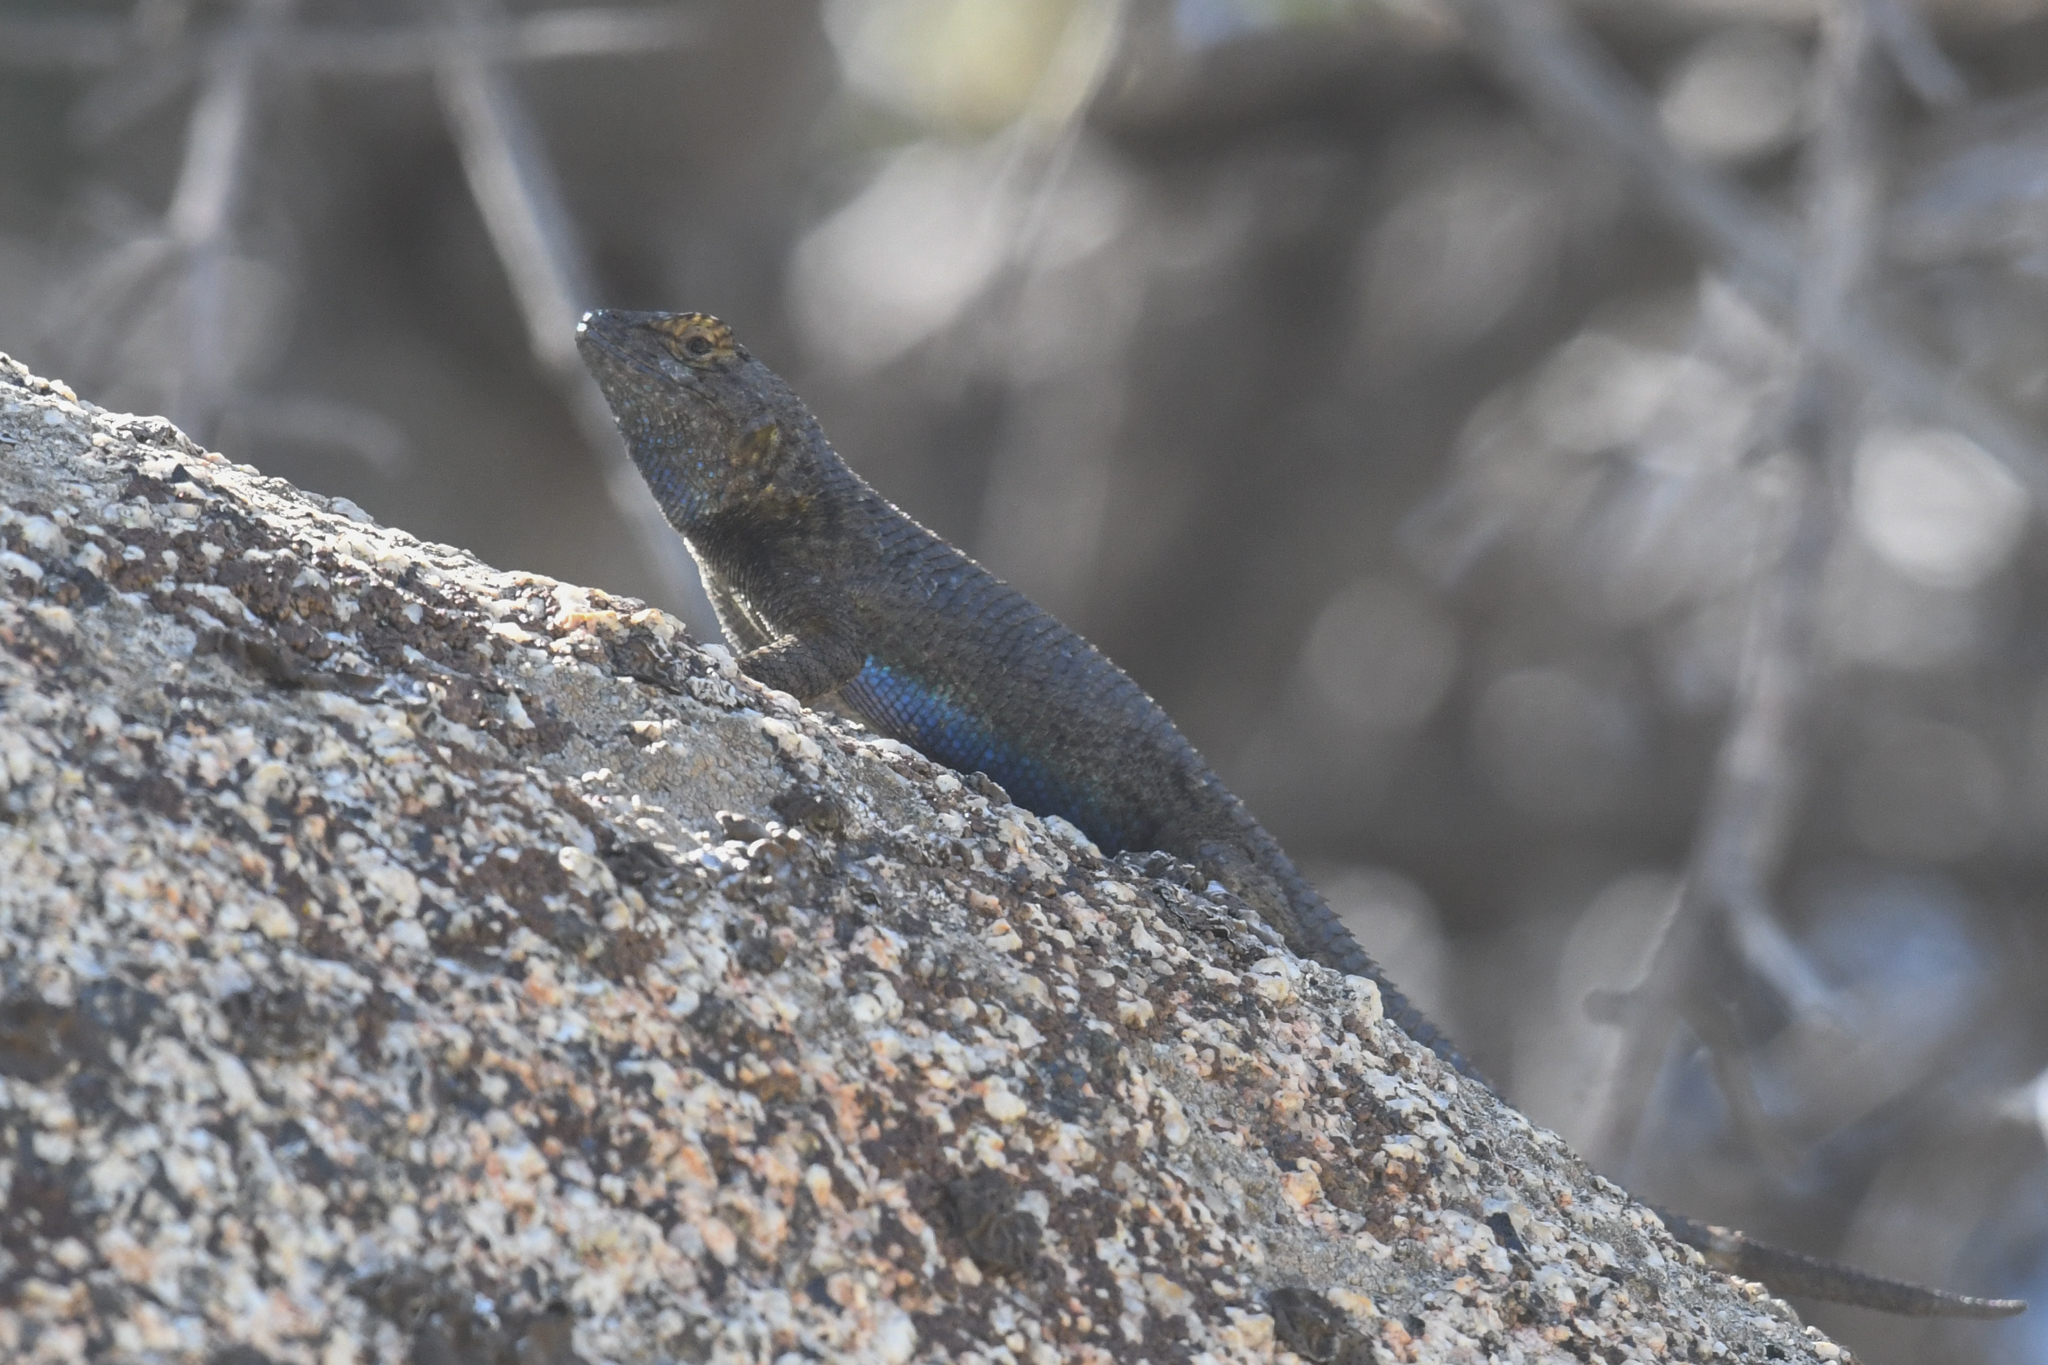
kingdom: Animalia
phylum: Chordata
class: Squamata
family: Phrynosomatidae
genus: Sceloporus
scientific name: Sceloporus occidentalis
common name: Western fence lizard
